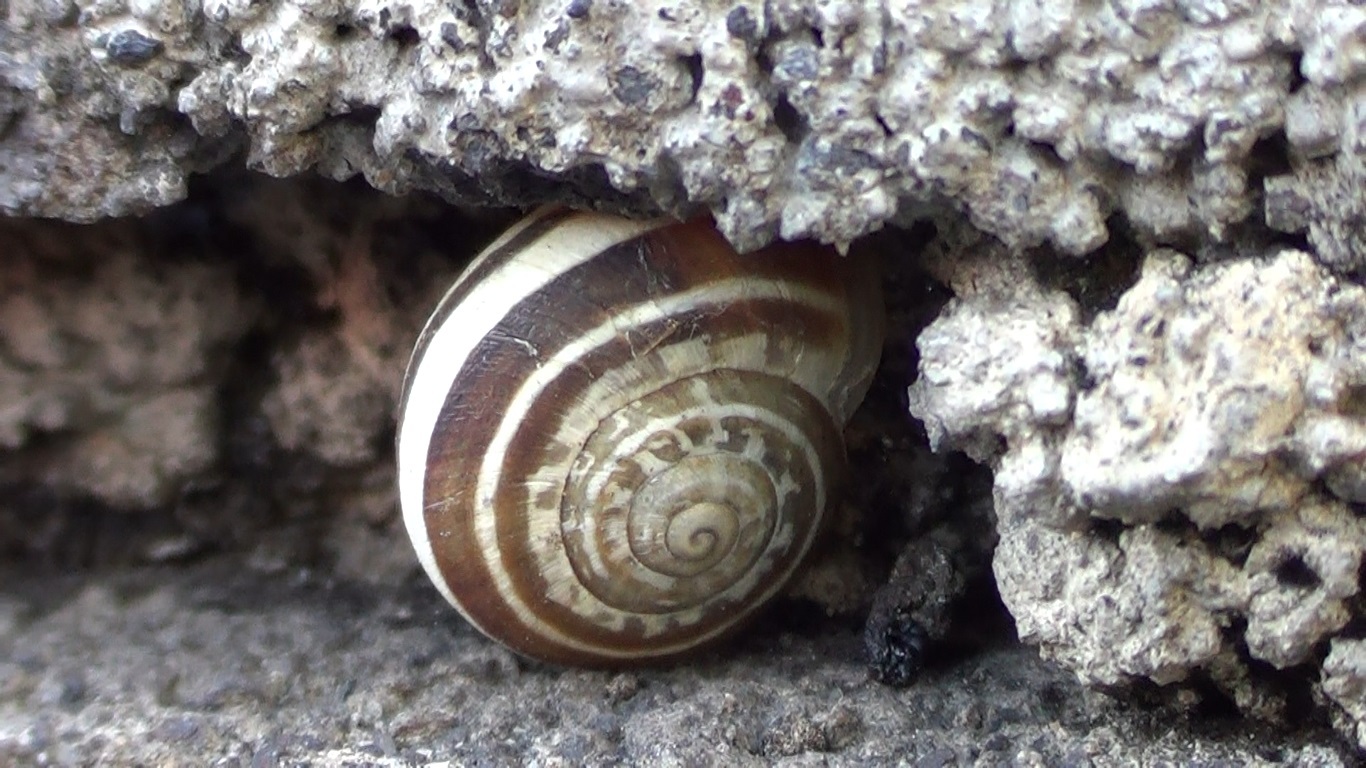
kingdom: Animalia
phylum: Mollusca
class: Gastropoda
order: Stylommatophora
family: Helicidae
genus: Eobania
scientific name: Eobania vermiculata
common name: Chocolateband snail
